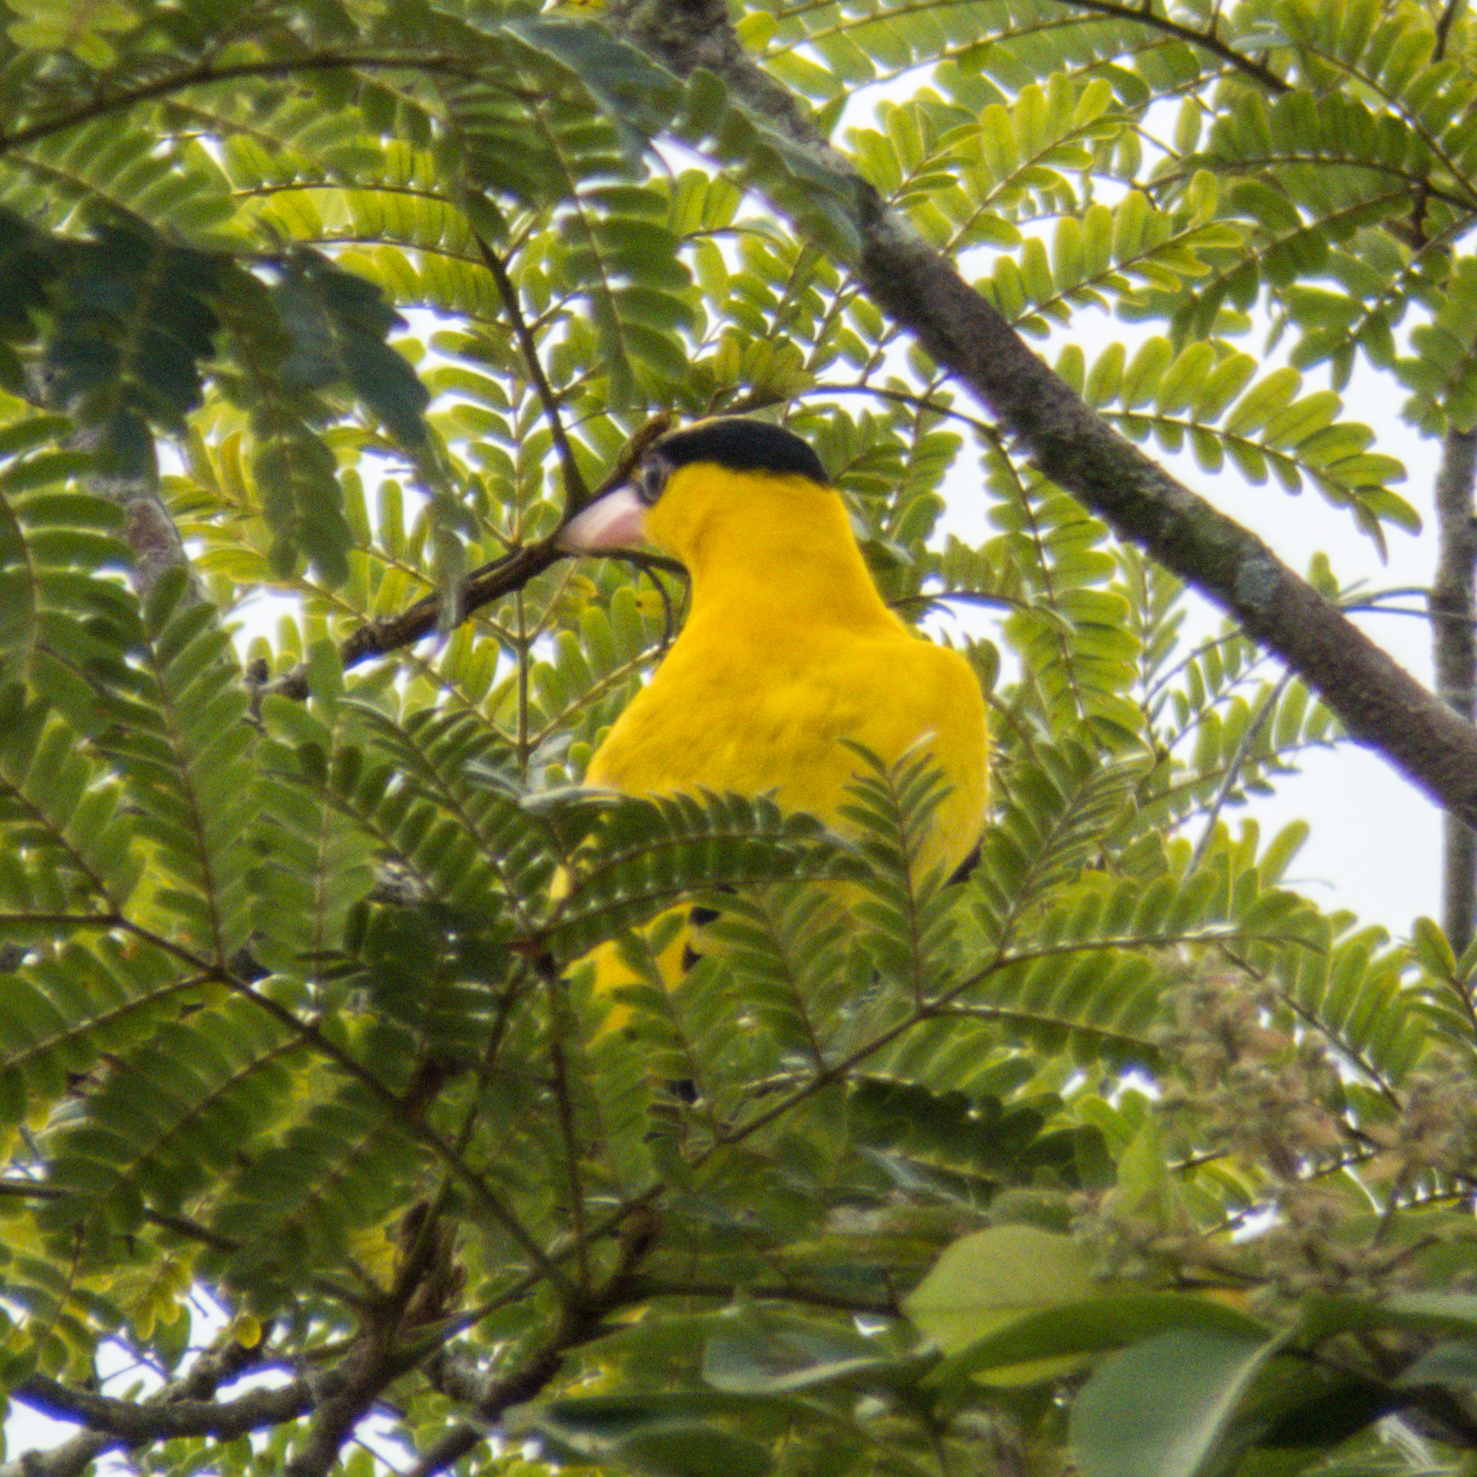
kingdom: Animalia
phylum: Chordata
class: Aves
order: Passeriformes
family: Oriolidae
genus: Oriolus
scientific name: Oriolus chinensis
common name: Black-naped oriole
